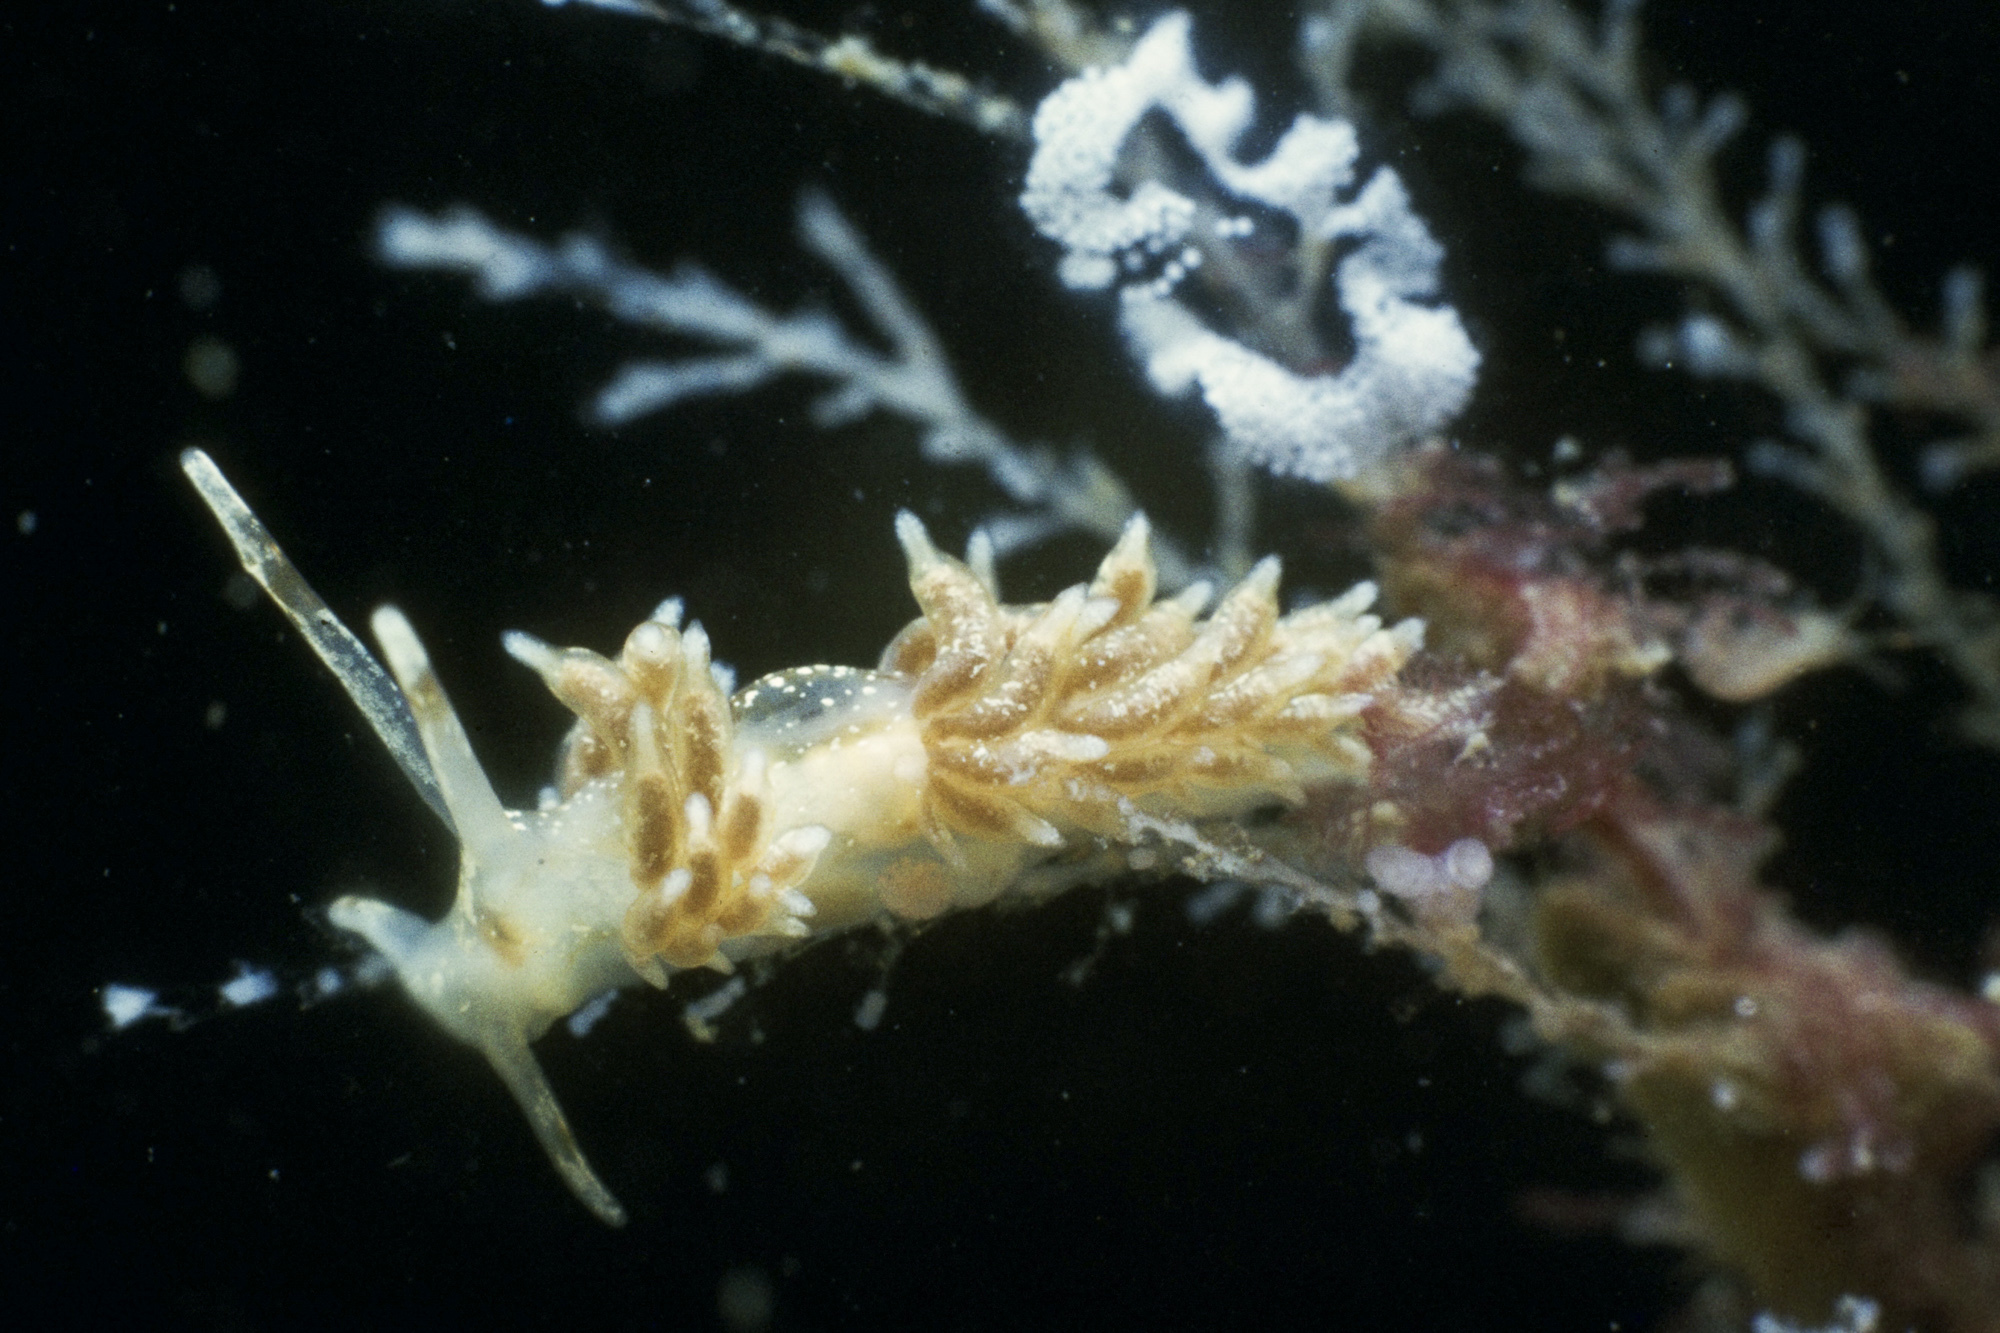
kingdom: Animalia
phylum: Mollusca
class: Gastropoda
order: Nudibranchia
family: Trinchesiidae
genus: Rubramoena
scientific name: Rubramoena amoena
